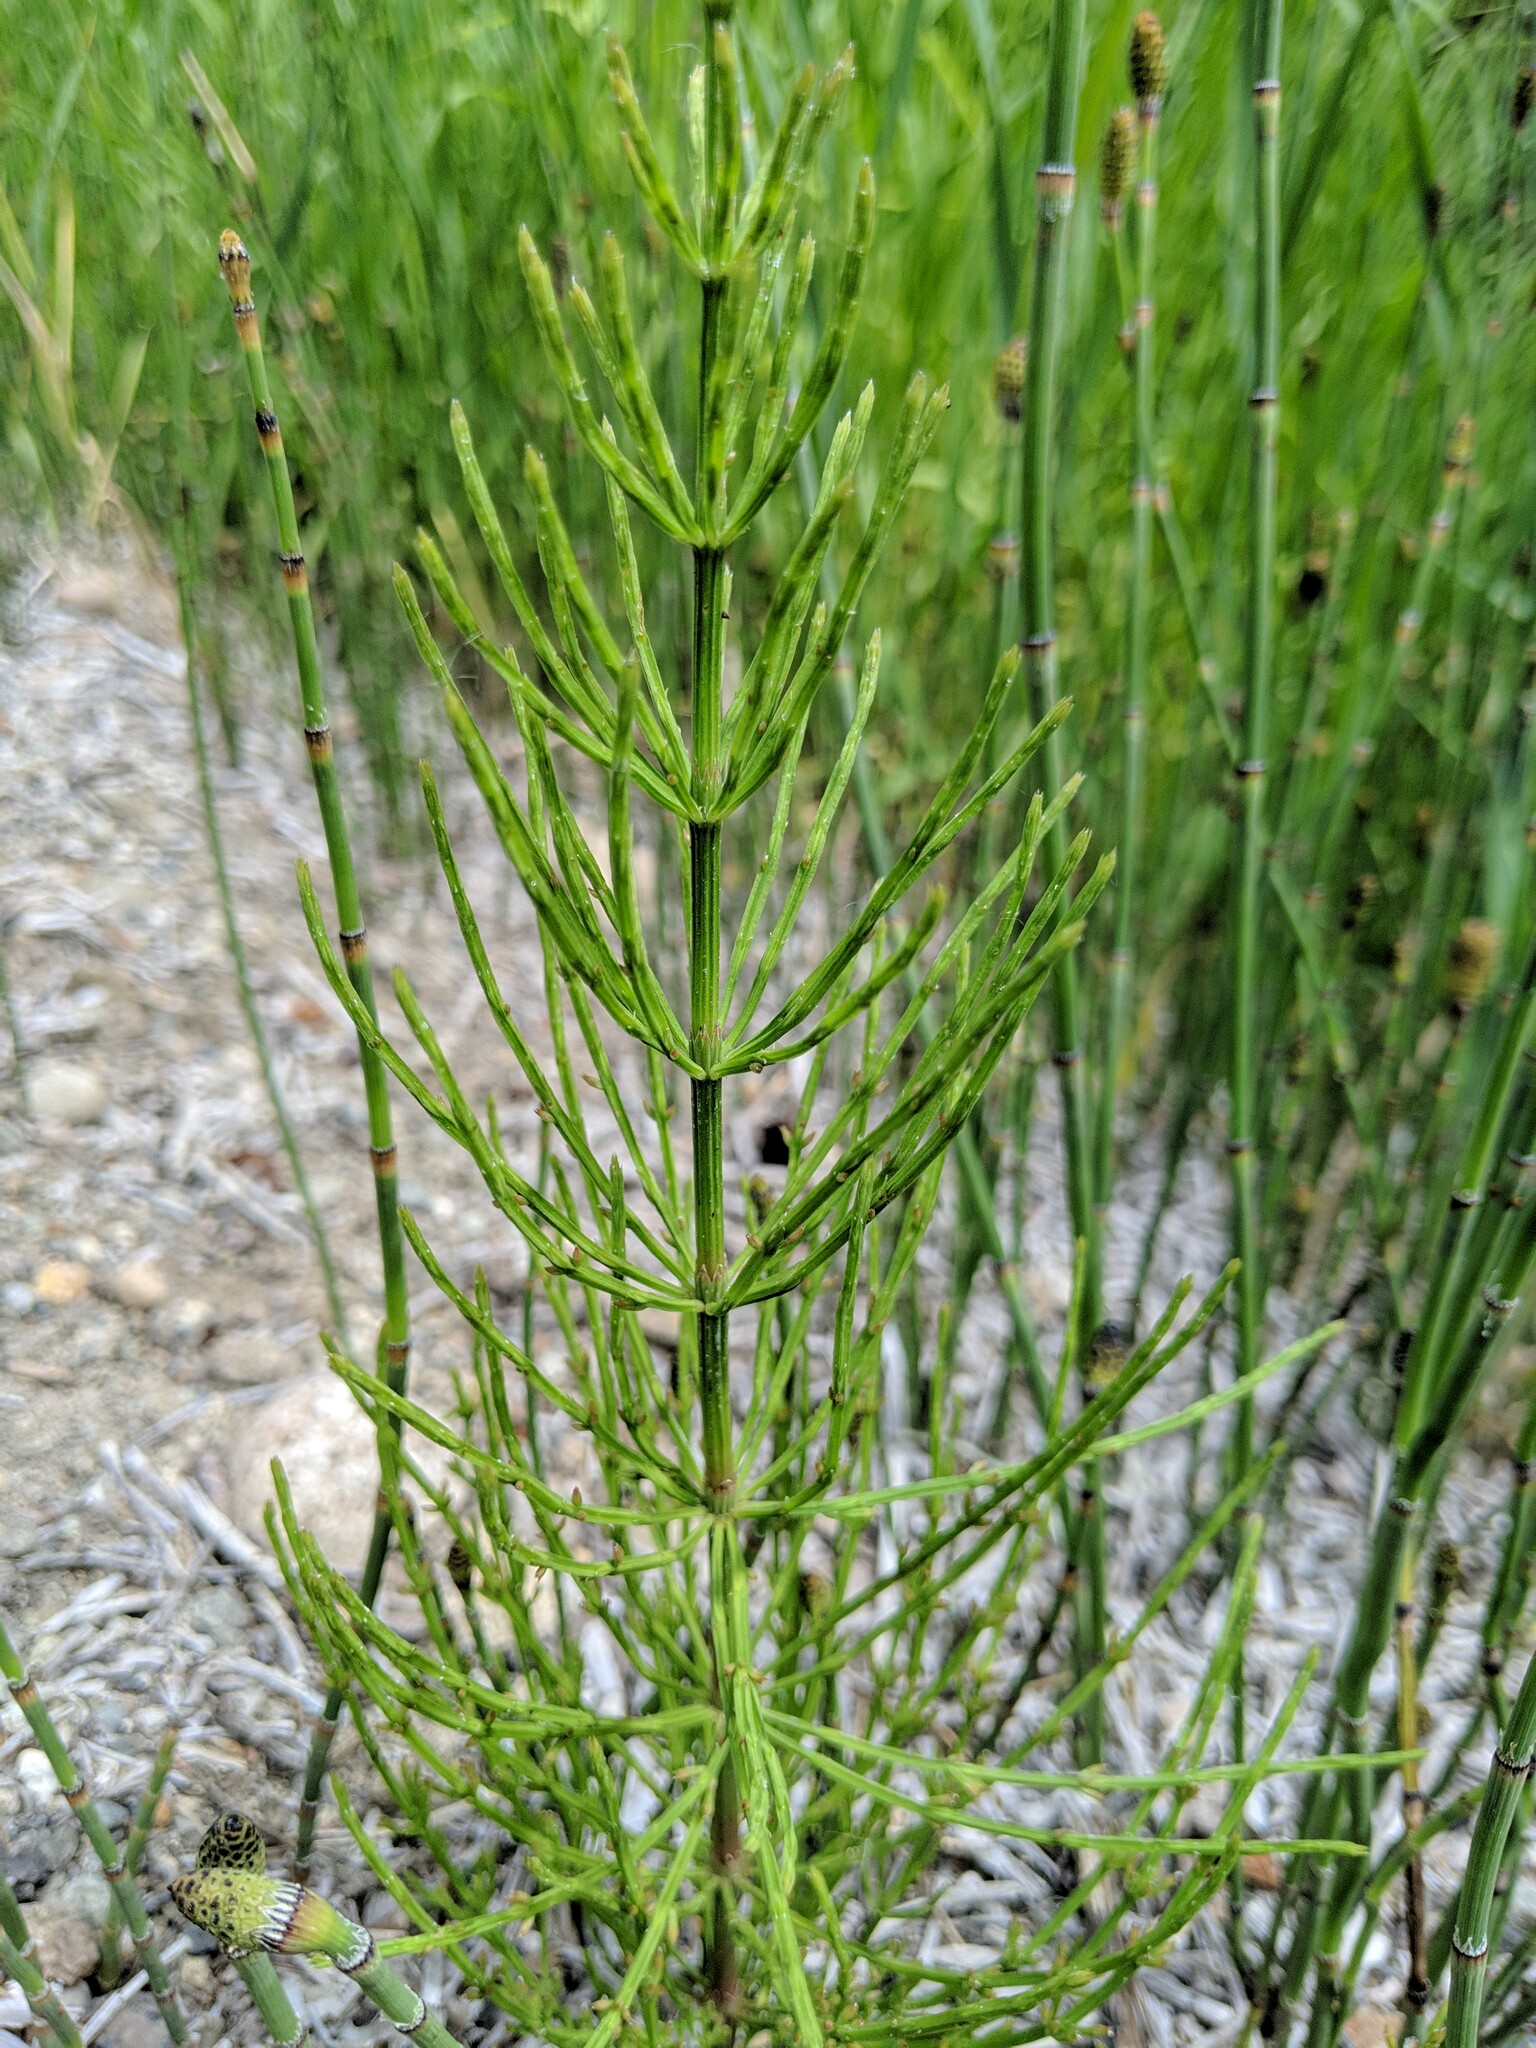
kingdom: Plantae
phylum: Tracheophyta
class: Polypodiopsida
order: Equisetales
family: Equisetaceae
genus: Equisetum
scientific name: Equisetum arvense
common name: Field horsetail
